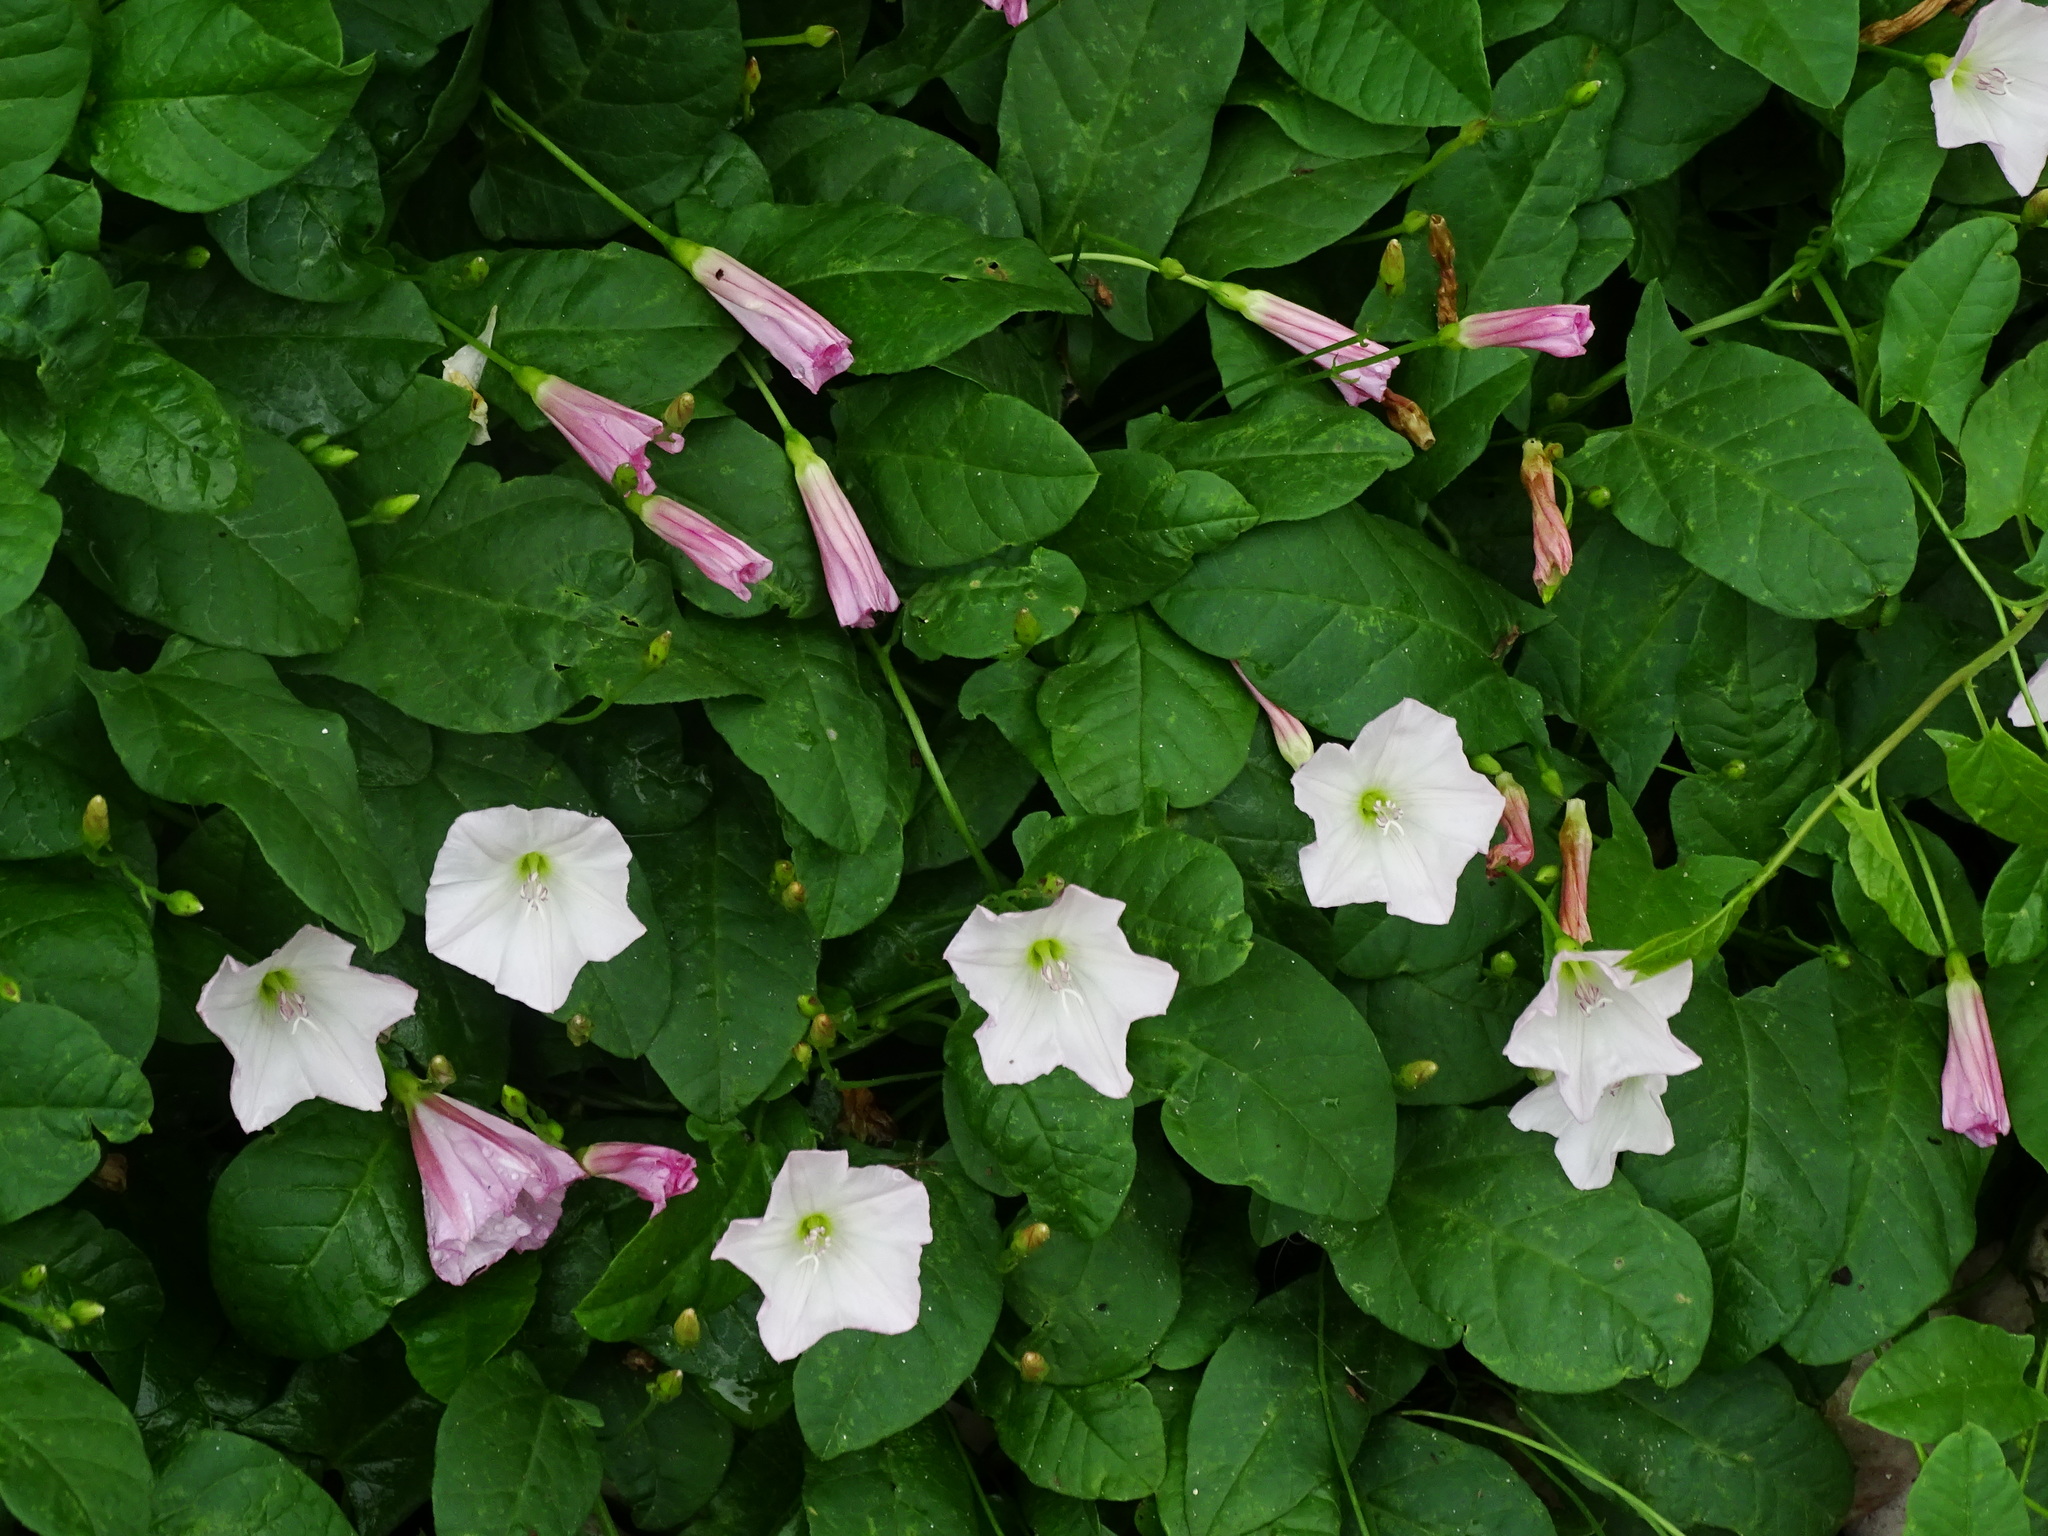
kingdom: Plantae
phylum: Tracheophyta
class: Magnoliopsida
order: Solanales
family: Convolvulaceae
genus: Convolvulus
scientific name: Convolvulus arvensis
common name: Field bindweed
